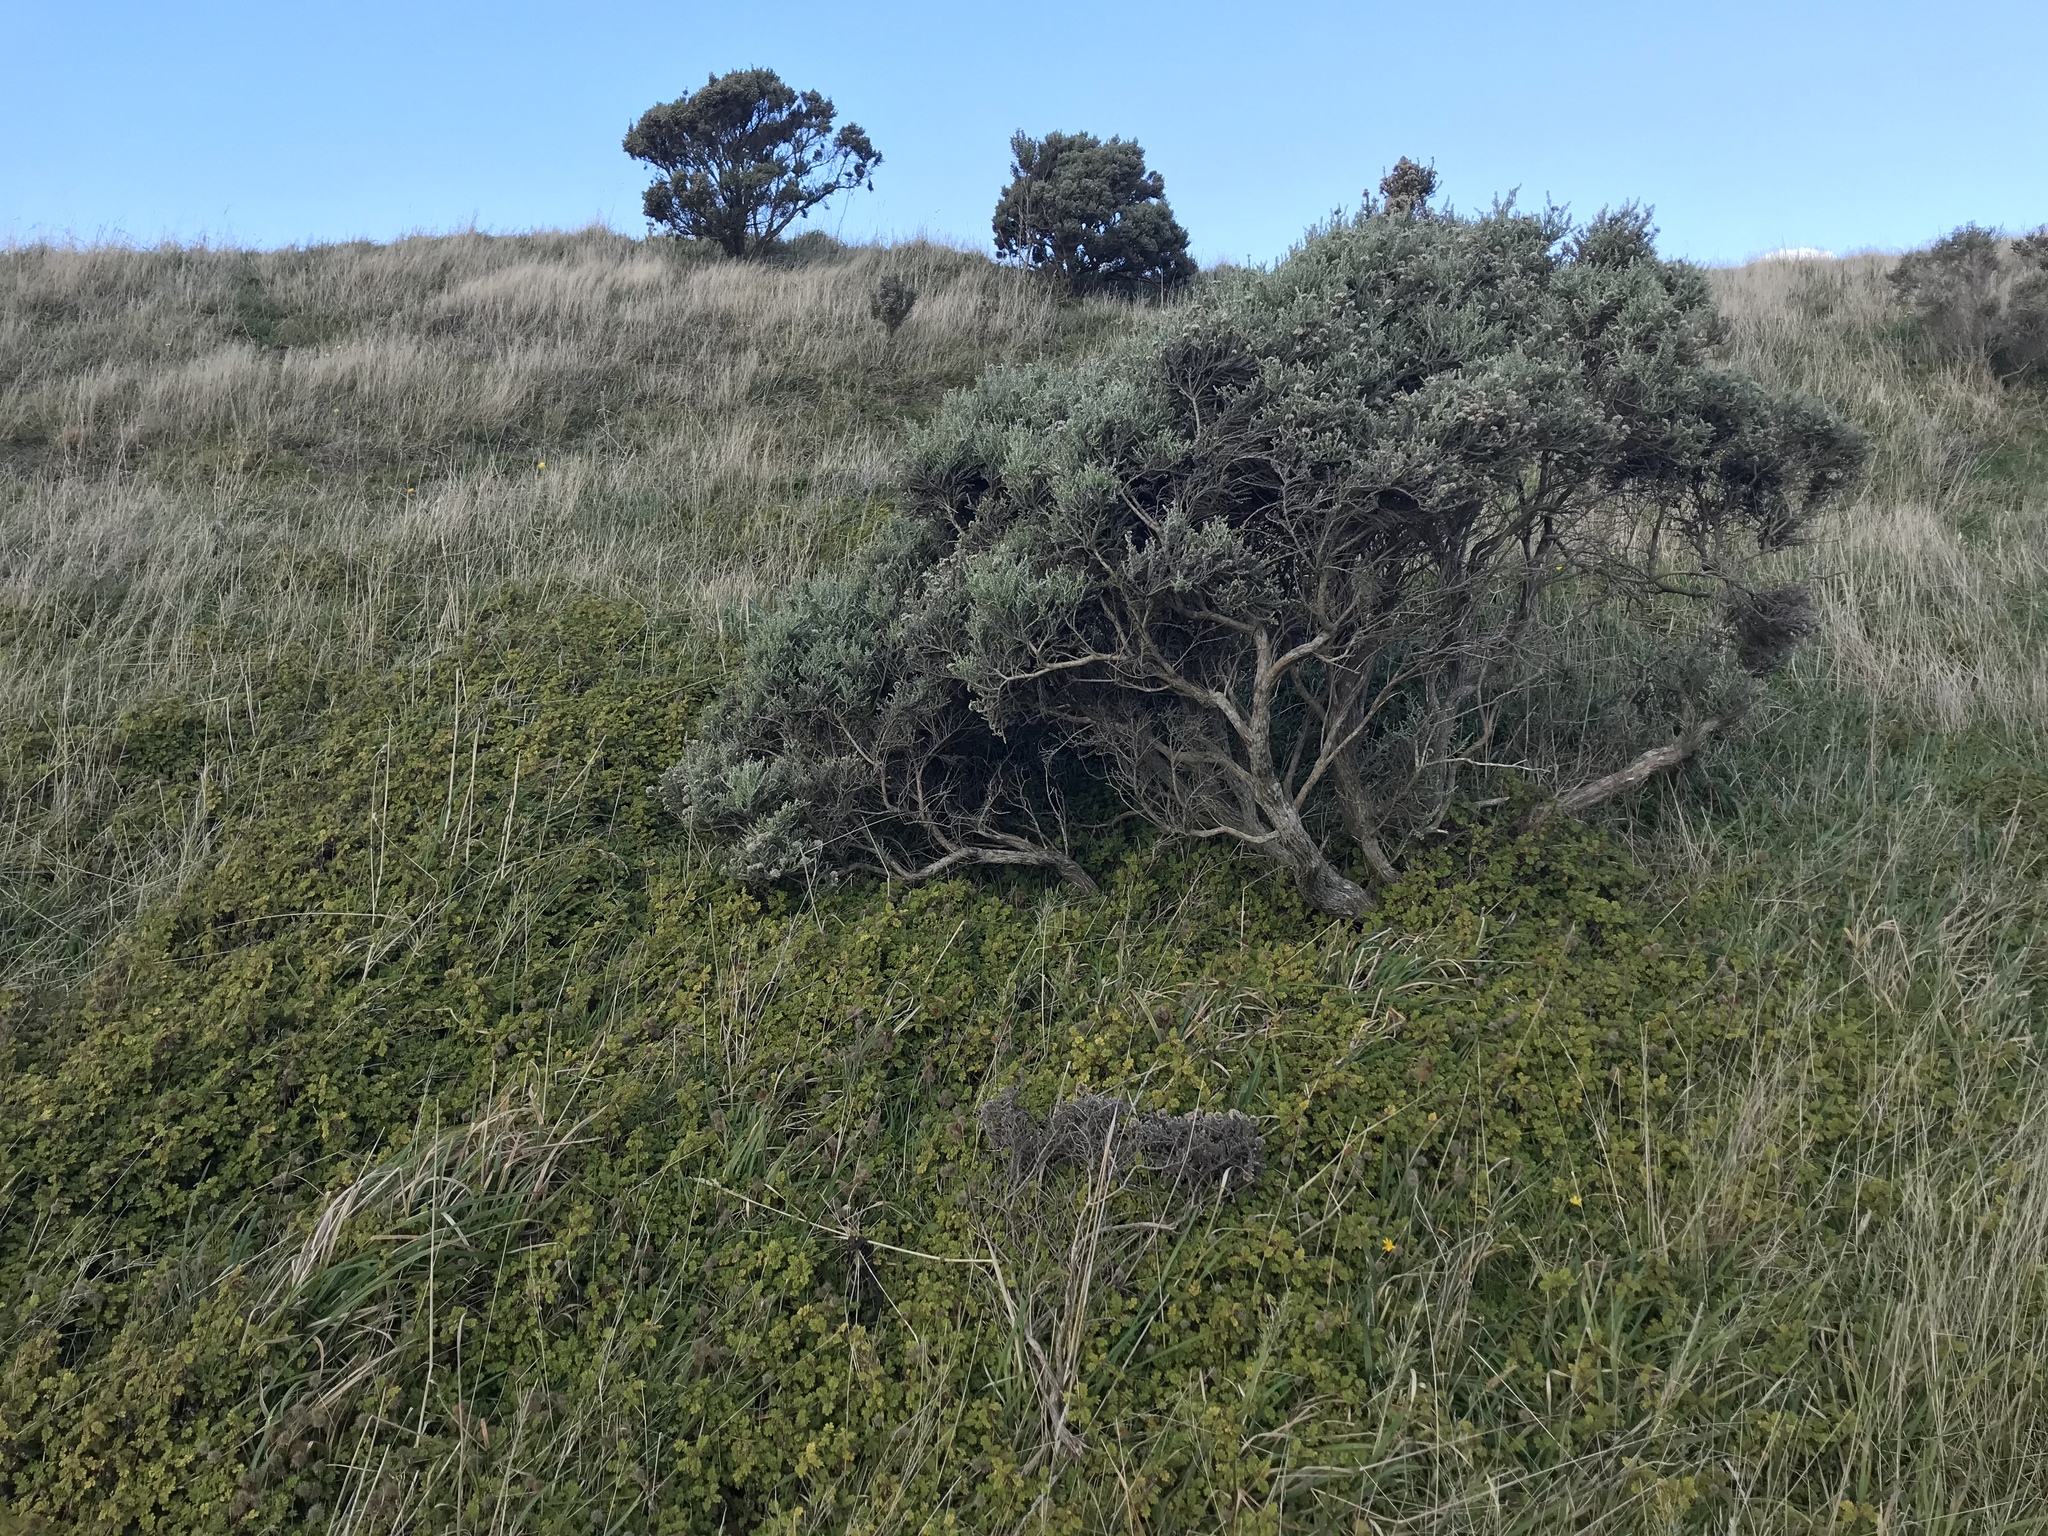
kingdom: Plantae
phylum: Tracheophyta
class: Magnoliopsida
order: Asterales
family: Asteraceae
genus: Ozothamnus
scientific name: Ozothamnus leptophyllus
